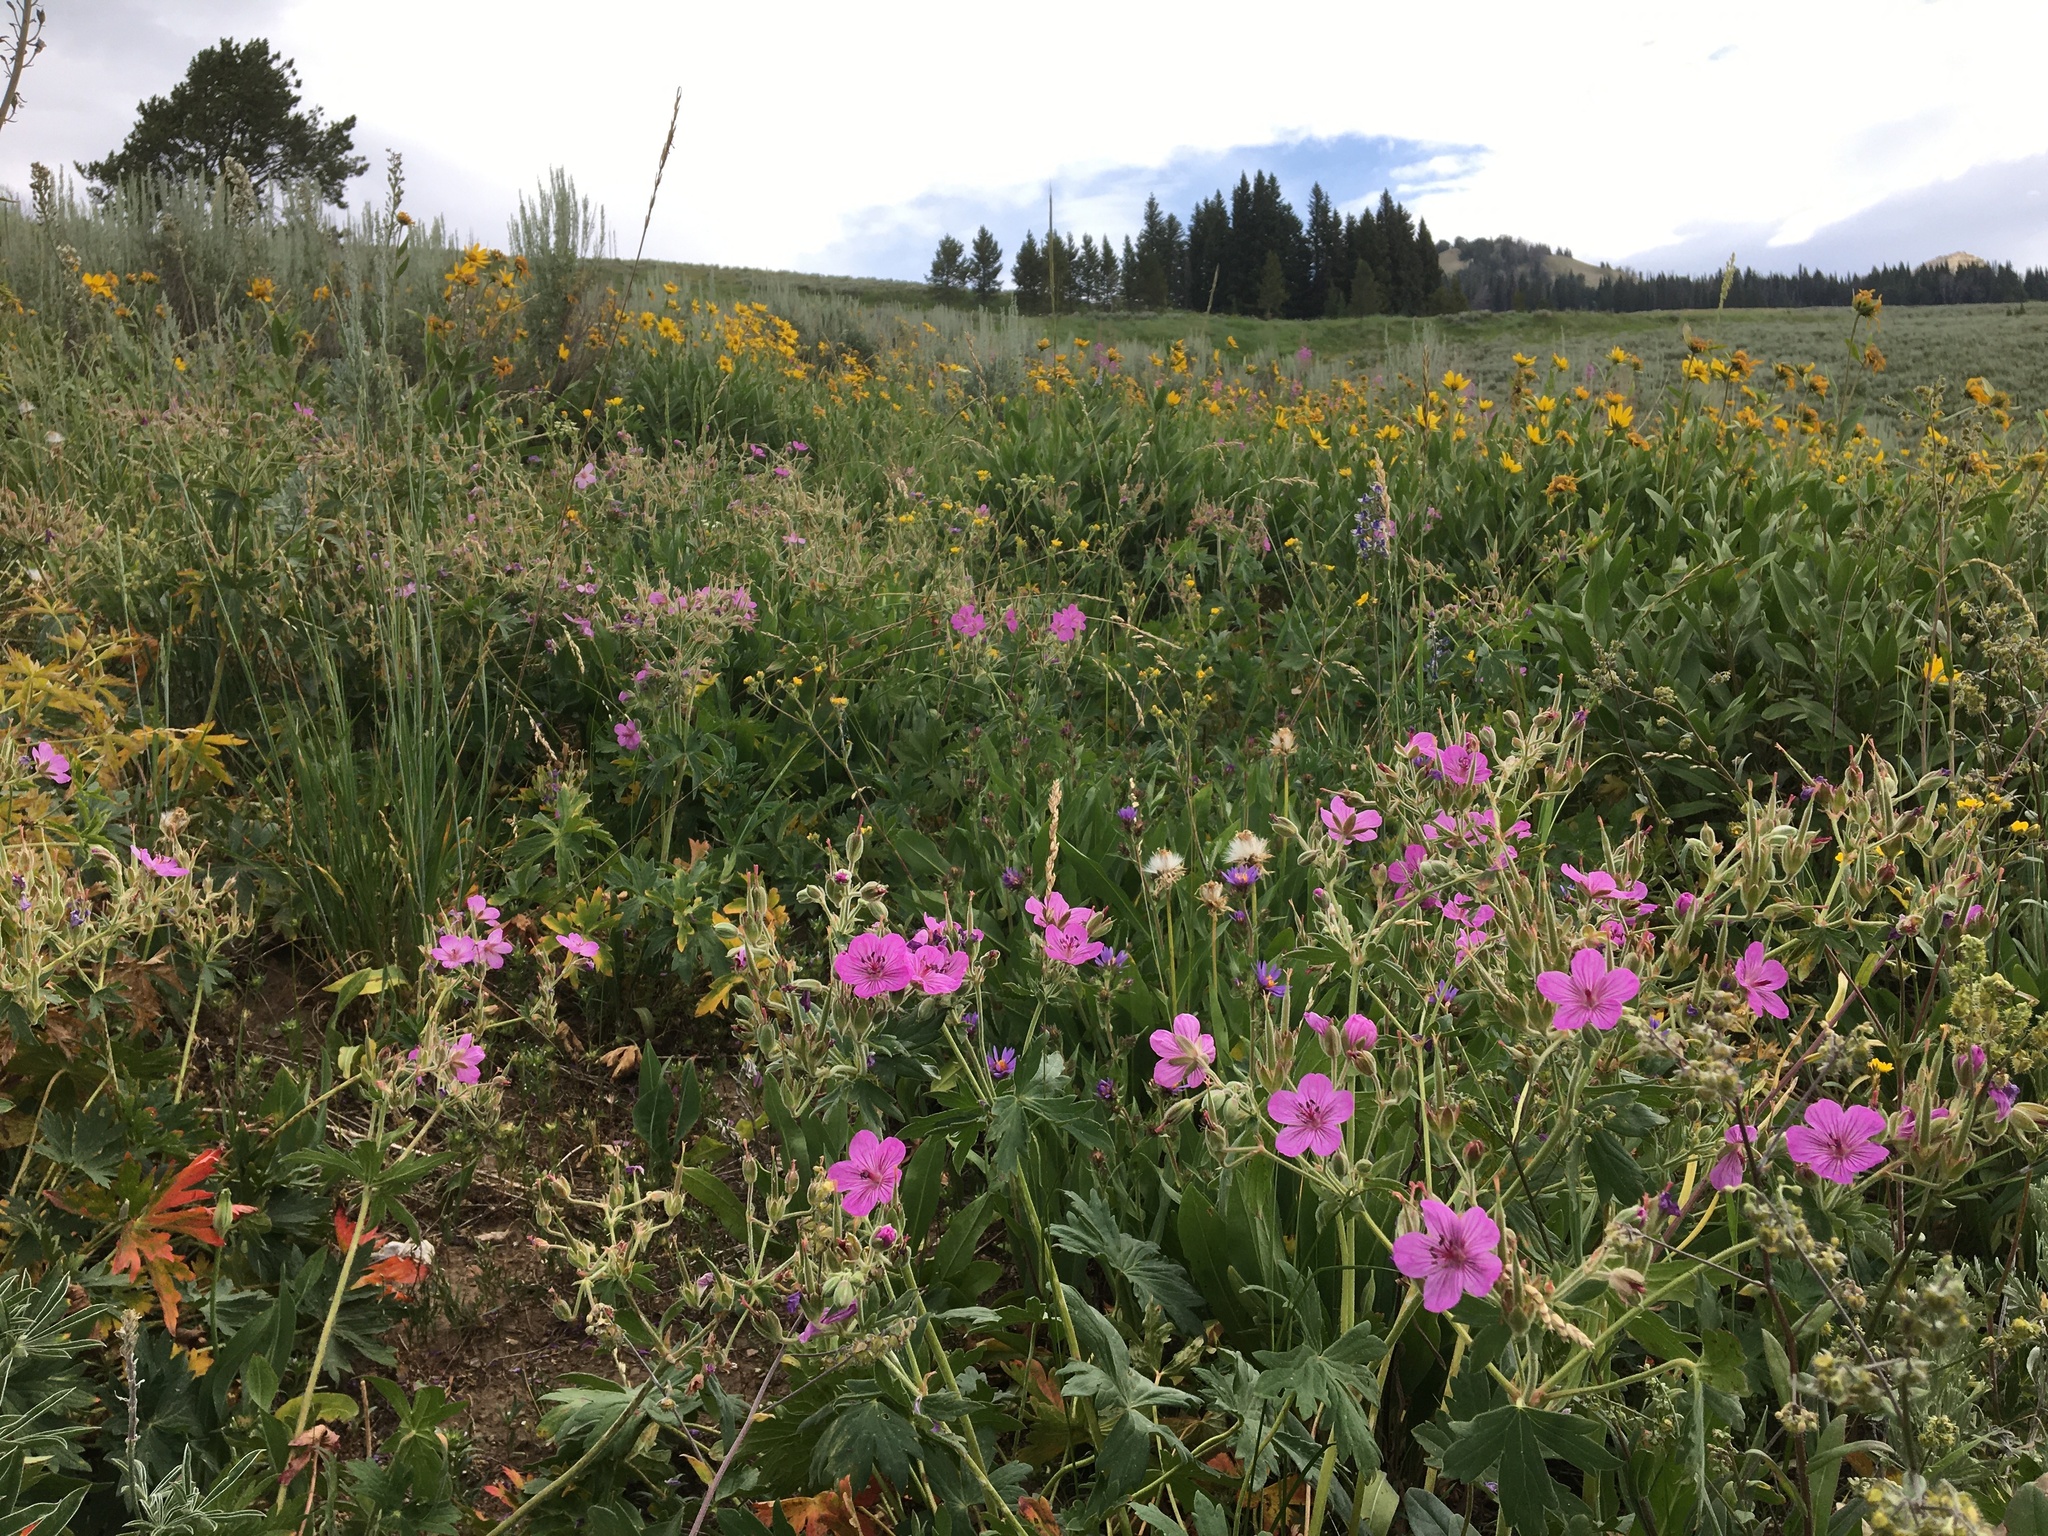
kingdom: Plantae
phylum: Tracheophyta
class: Magnoliopsida
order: Geraniales
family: Geraniaceae
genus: Geranium
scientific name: Geranium viscosissimum
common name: Purple geranium
